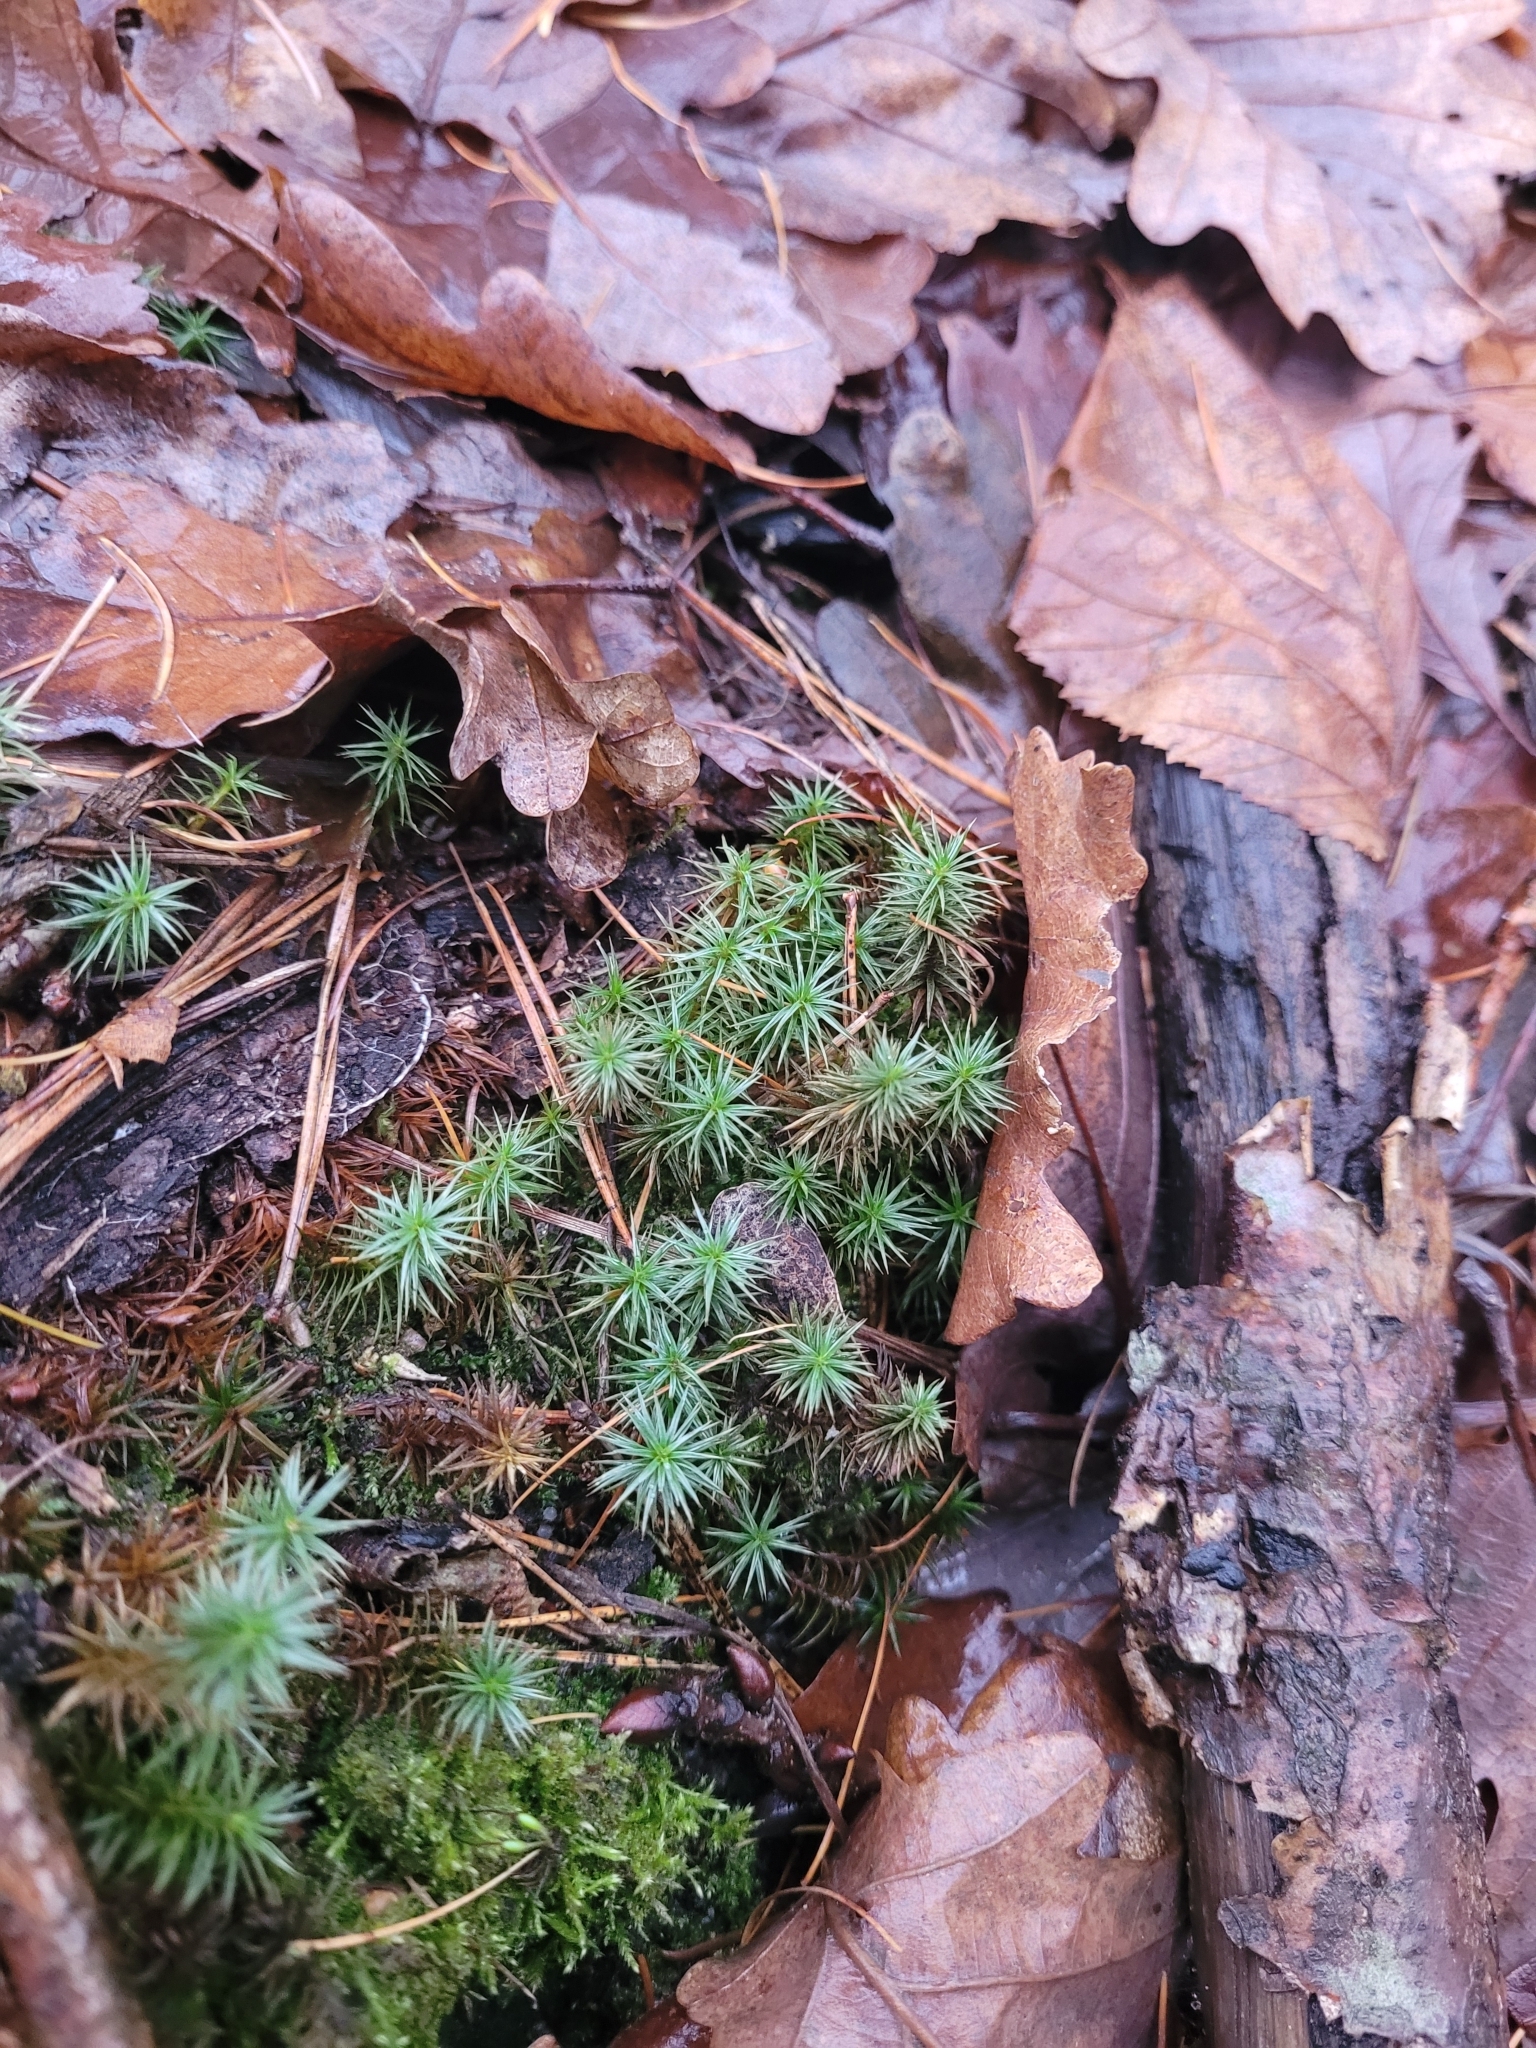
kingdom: Plantae
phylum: Bryophyta
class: Polytrichopsida
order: Polytrichales
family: Polytrichaceae
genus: Polytrichum
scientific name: Polytrichum juniperinum
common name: Juniper haircap moss
